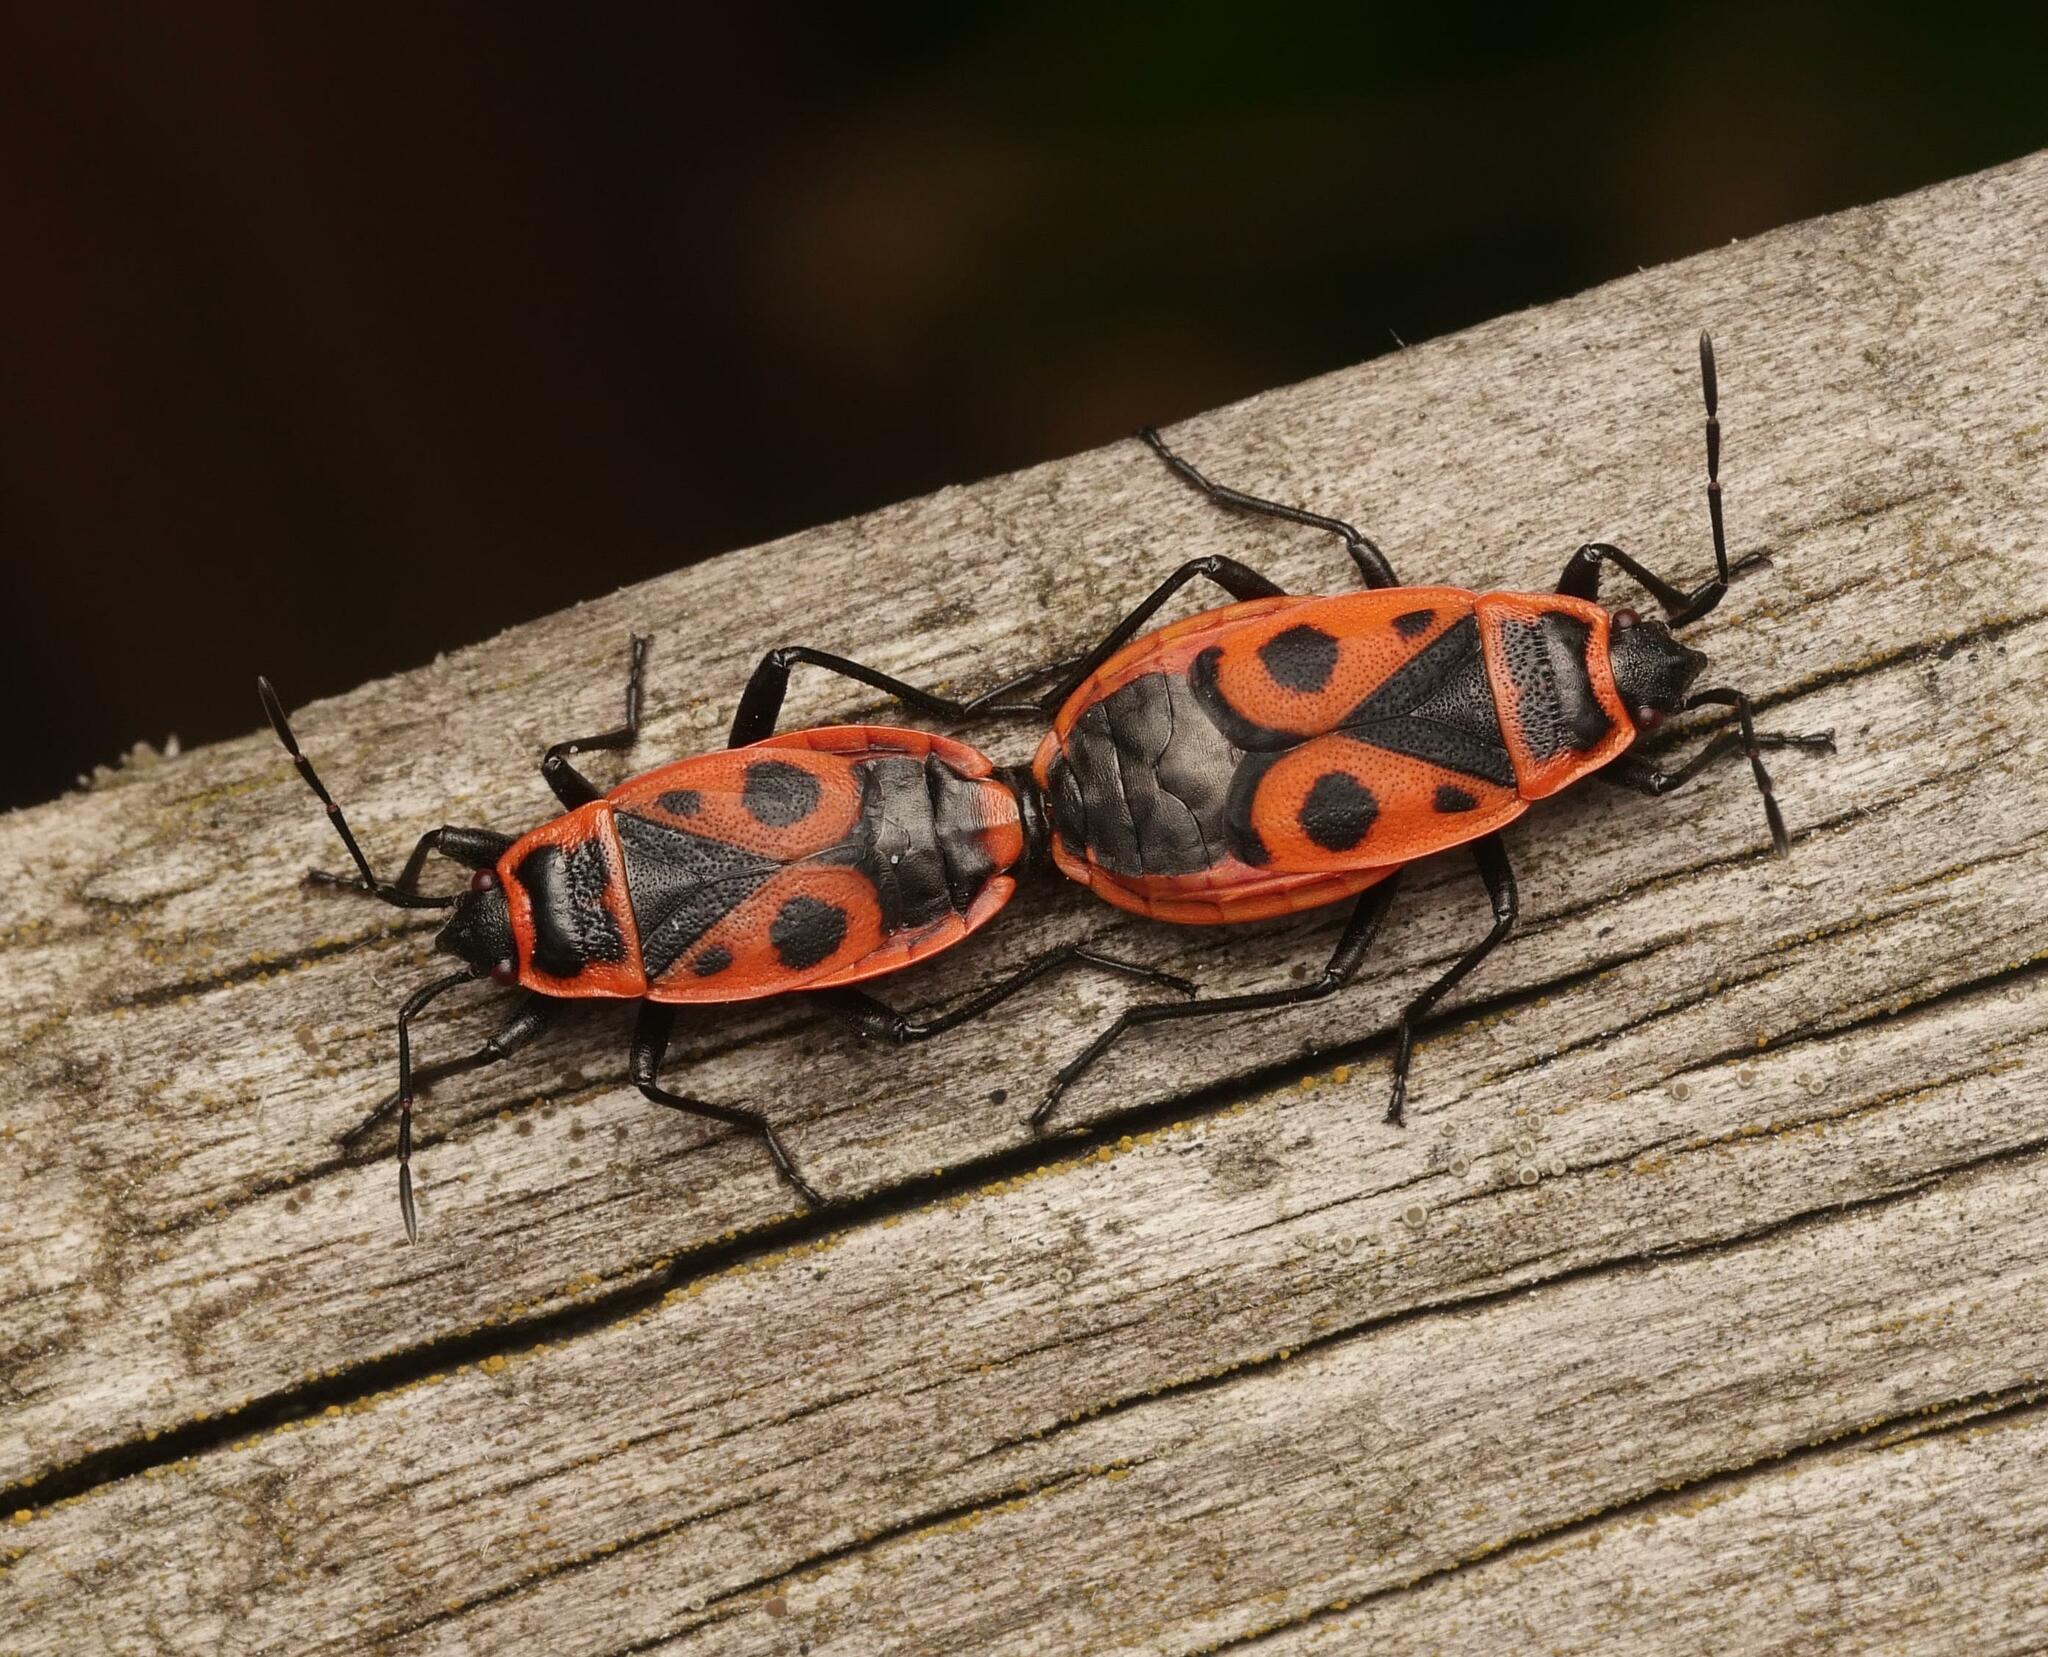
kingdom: Animalia
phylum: Arthropoda
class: Insecta
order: Hemiptera
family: Pyrrhocoridae
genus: Pyrrhocoris
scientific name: Pyrrhocoris apterus
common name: Firebug
